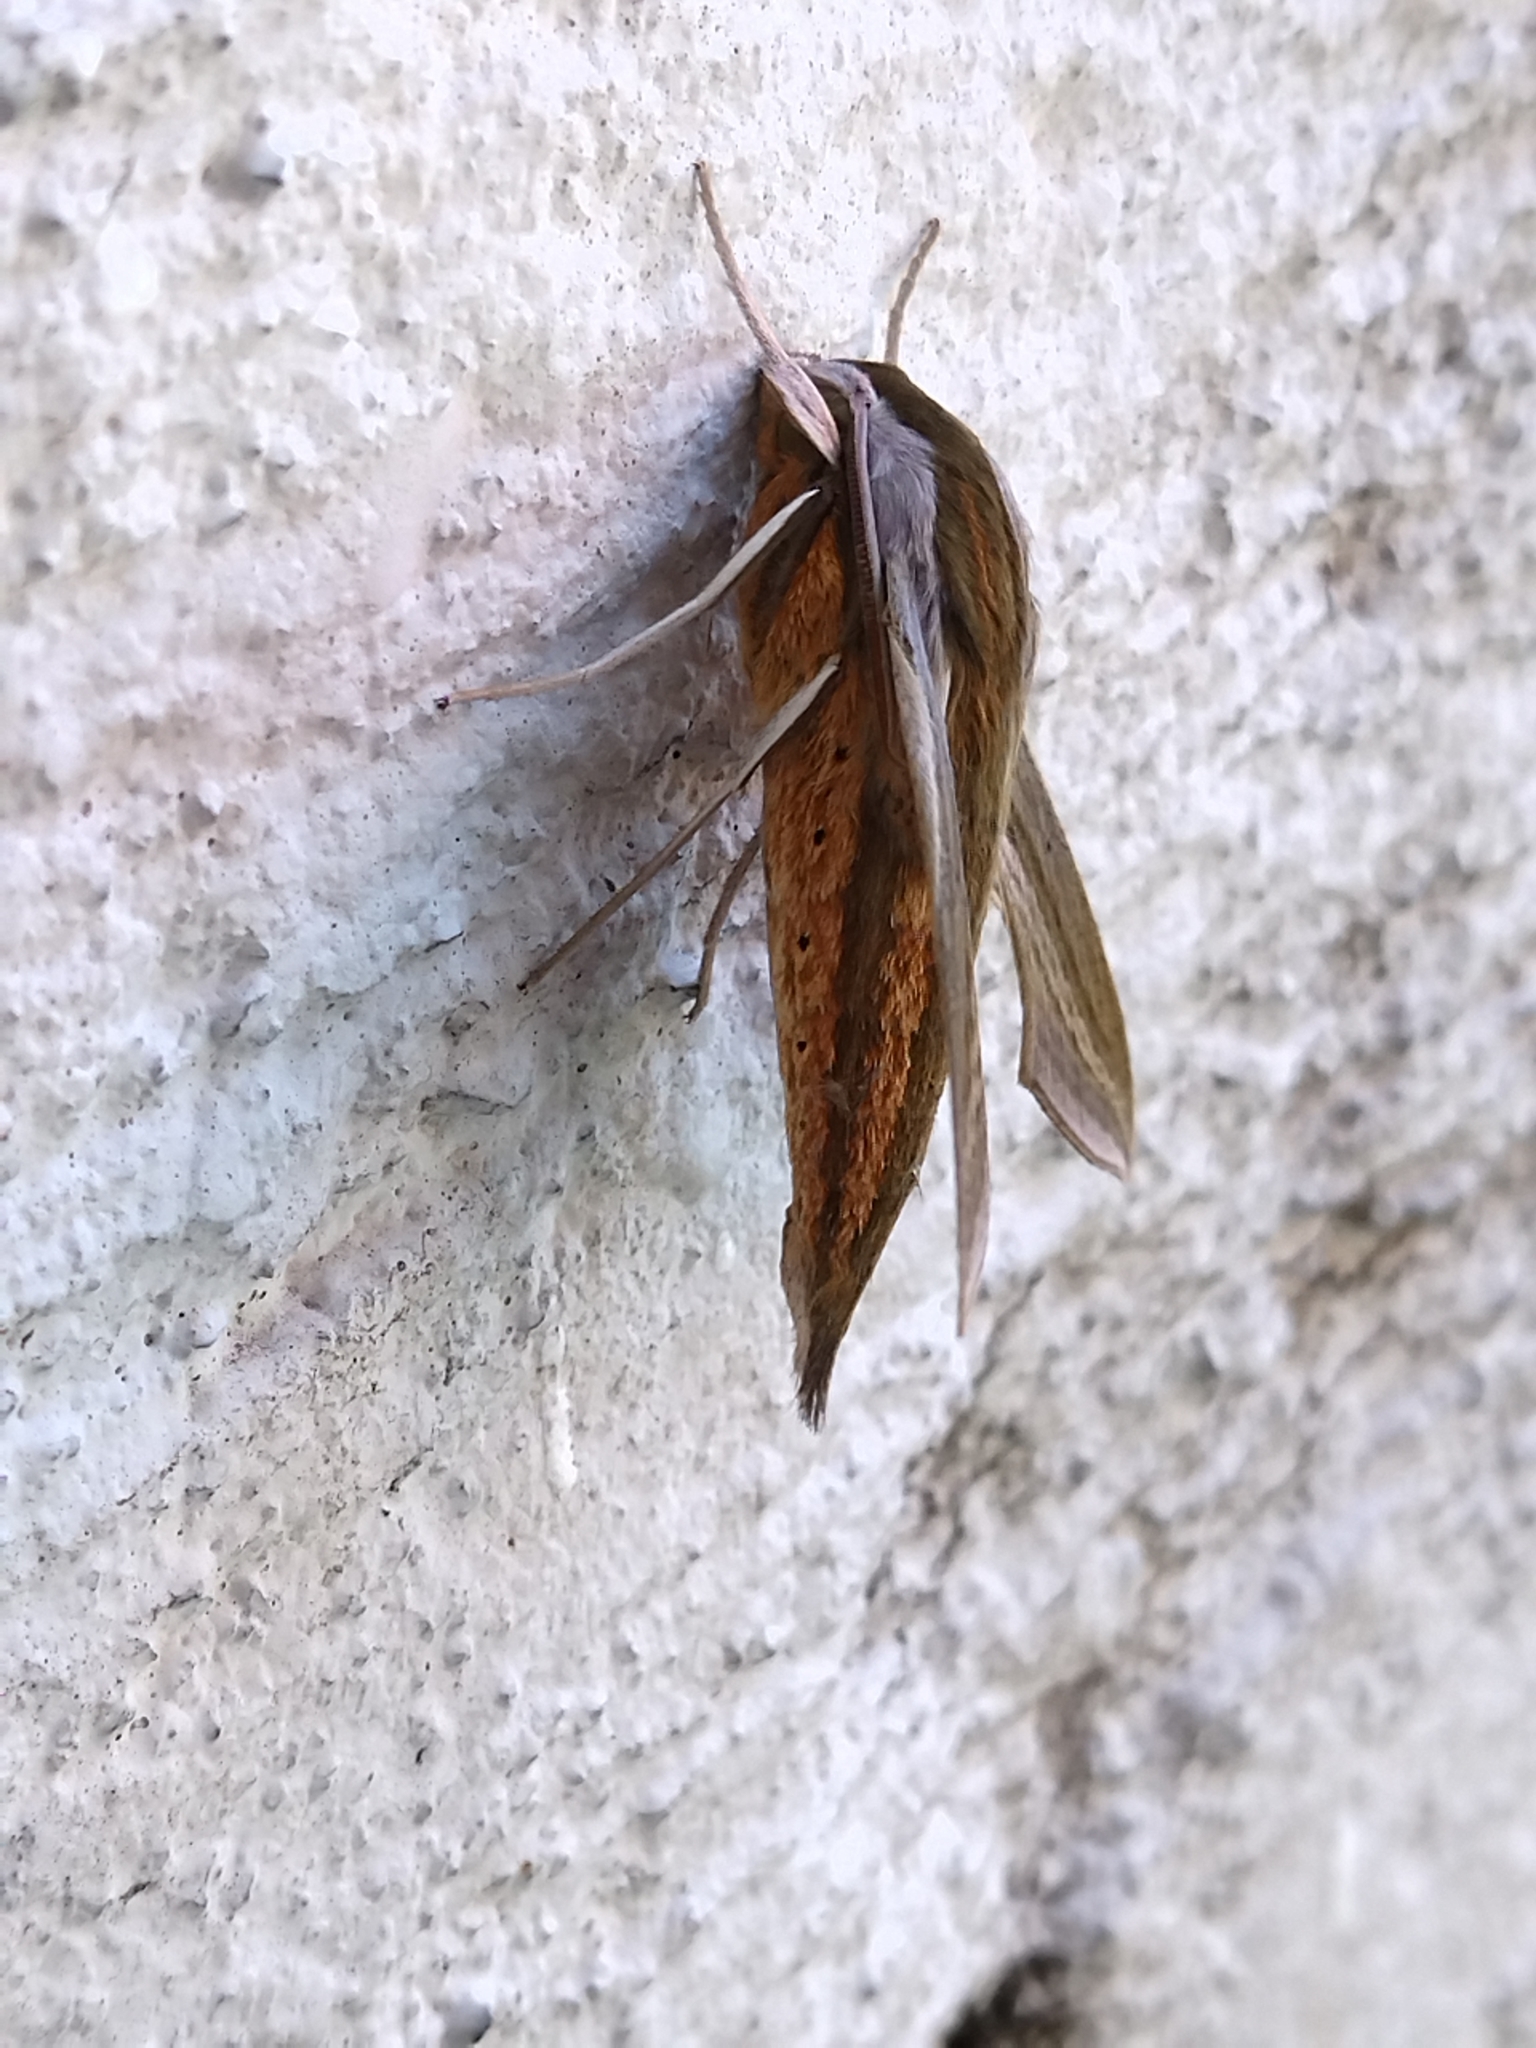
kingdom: Animalia
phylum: Arthropoda
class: Insecta
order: Lepidoptera
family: Sphingidae
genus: Theretra
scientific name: Theretra japonica
